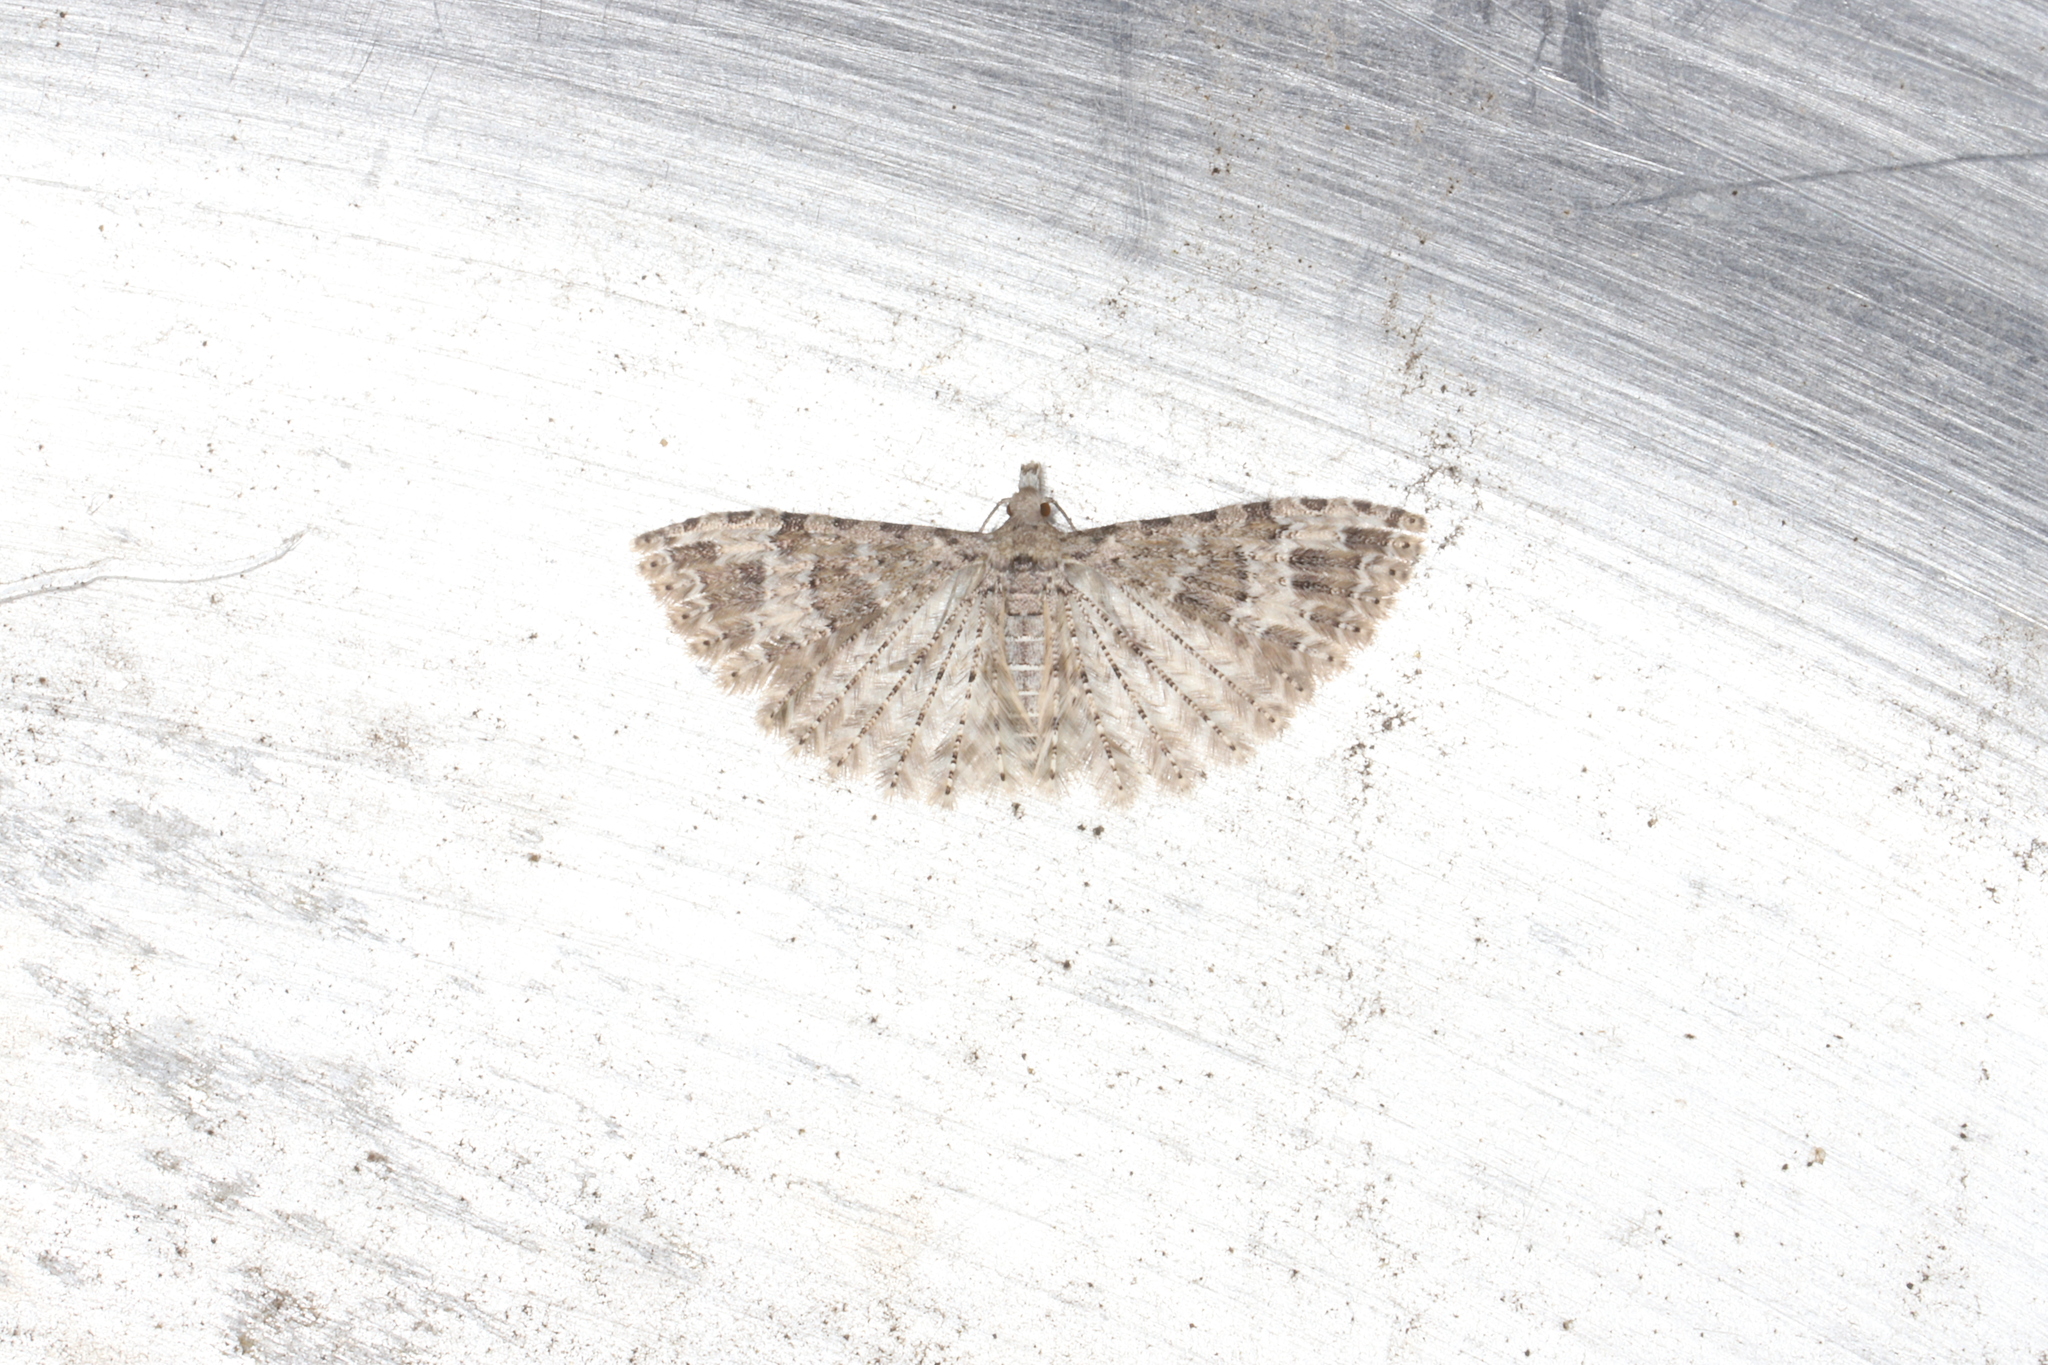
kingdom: Animalia
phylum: Arthropoda
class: Insecta
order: Lepidoptera
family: Noctuidae
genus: Lacanobia
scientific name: Lacanobia subjuncta
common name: Speckled cutworm moth
